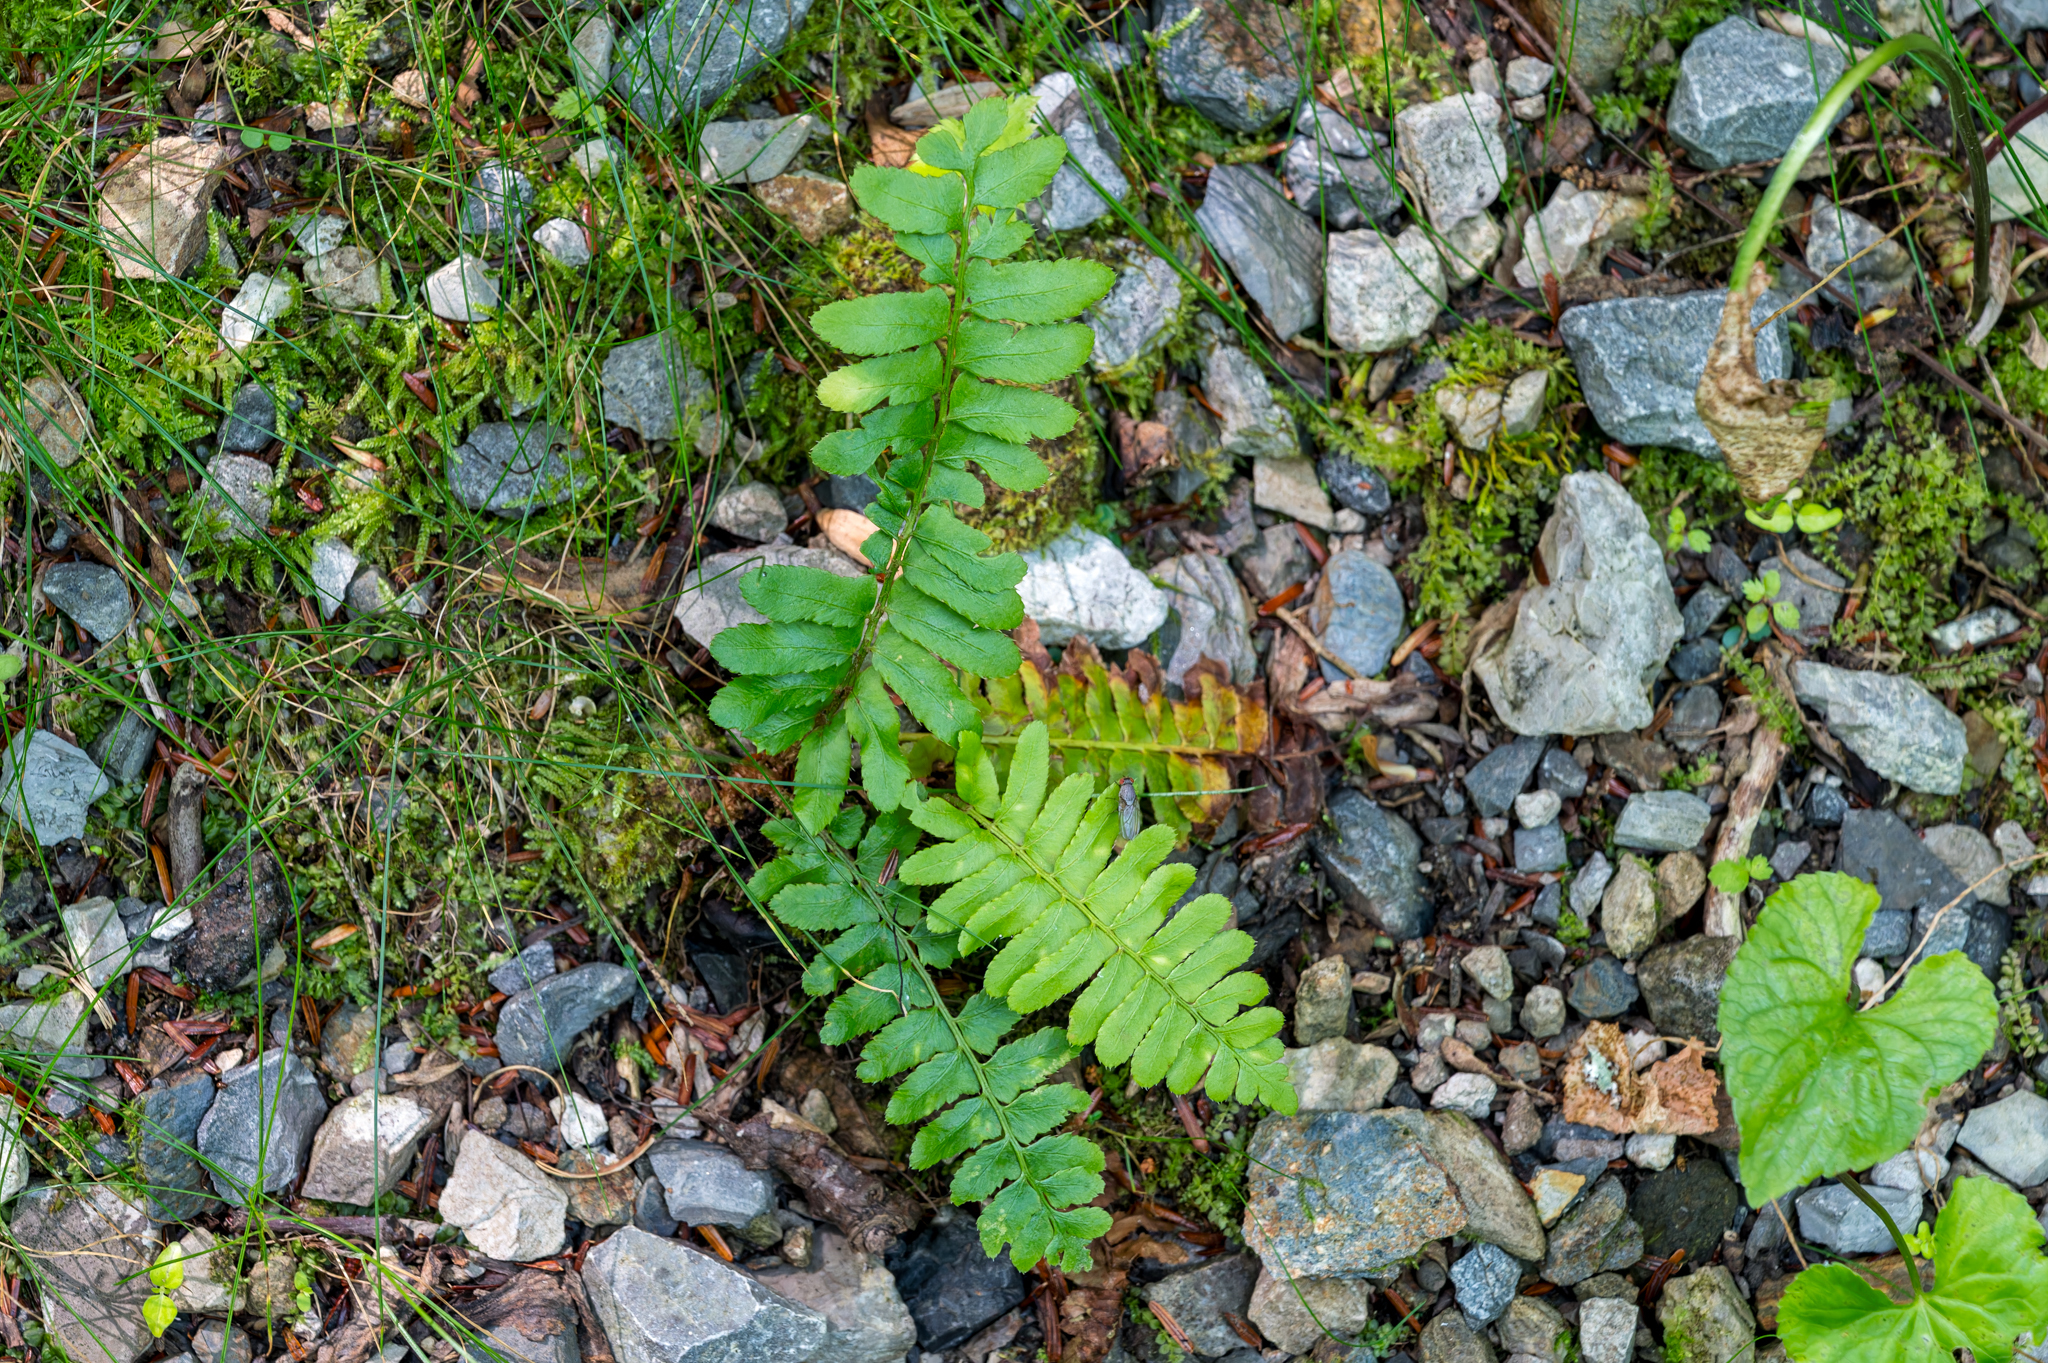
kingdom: Plantae
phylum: Tracheophyta
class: Polypodiopsida
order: Polypodiales
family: Dryopteridaceae
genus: Polystichum
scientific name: Polystichum acrostichoides
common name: Christmas fern
